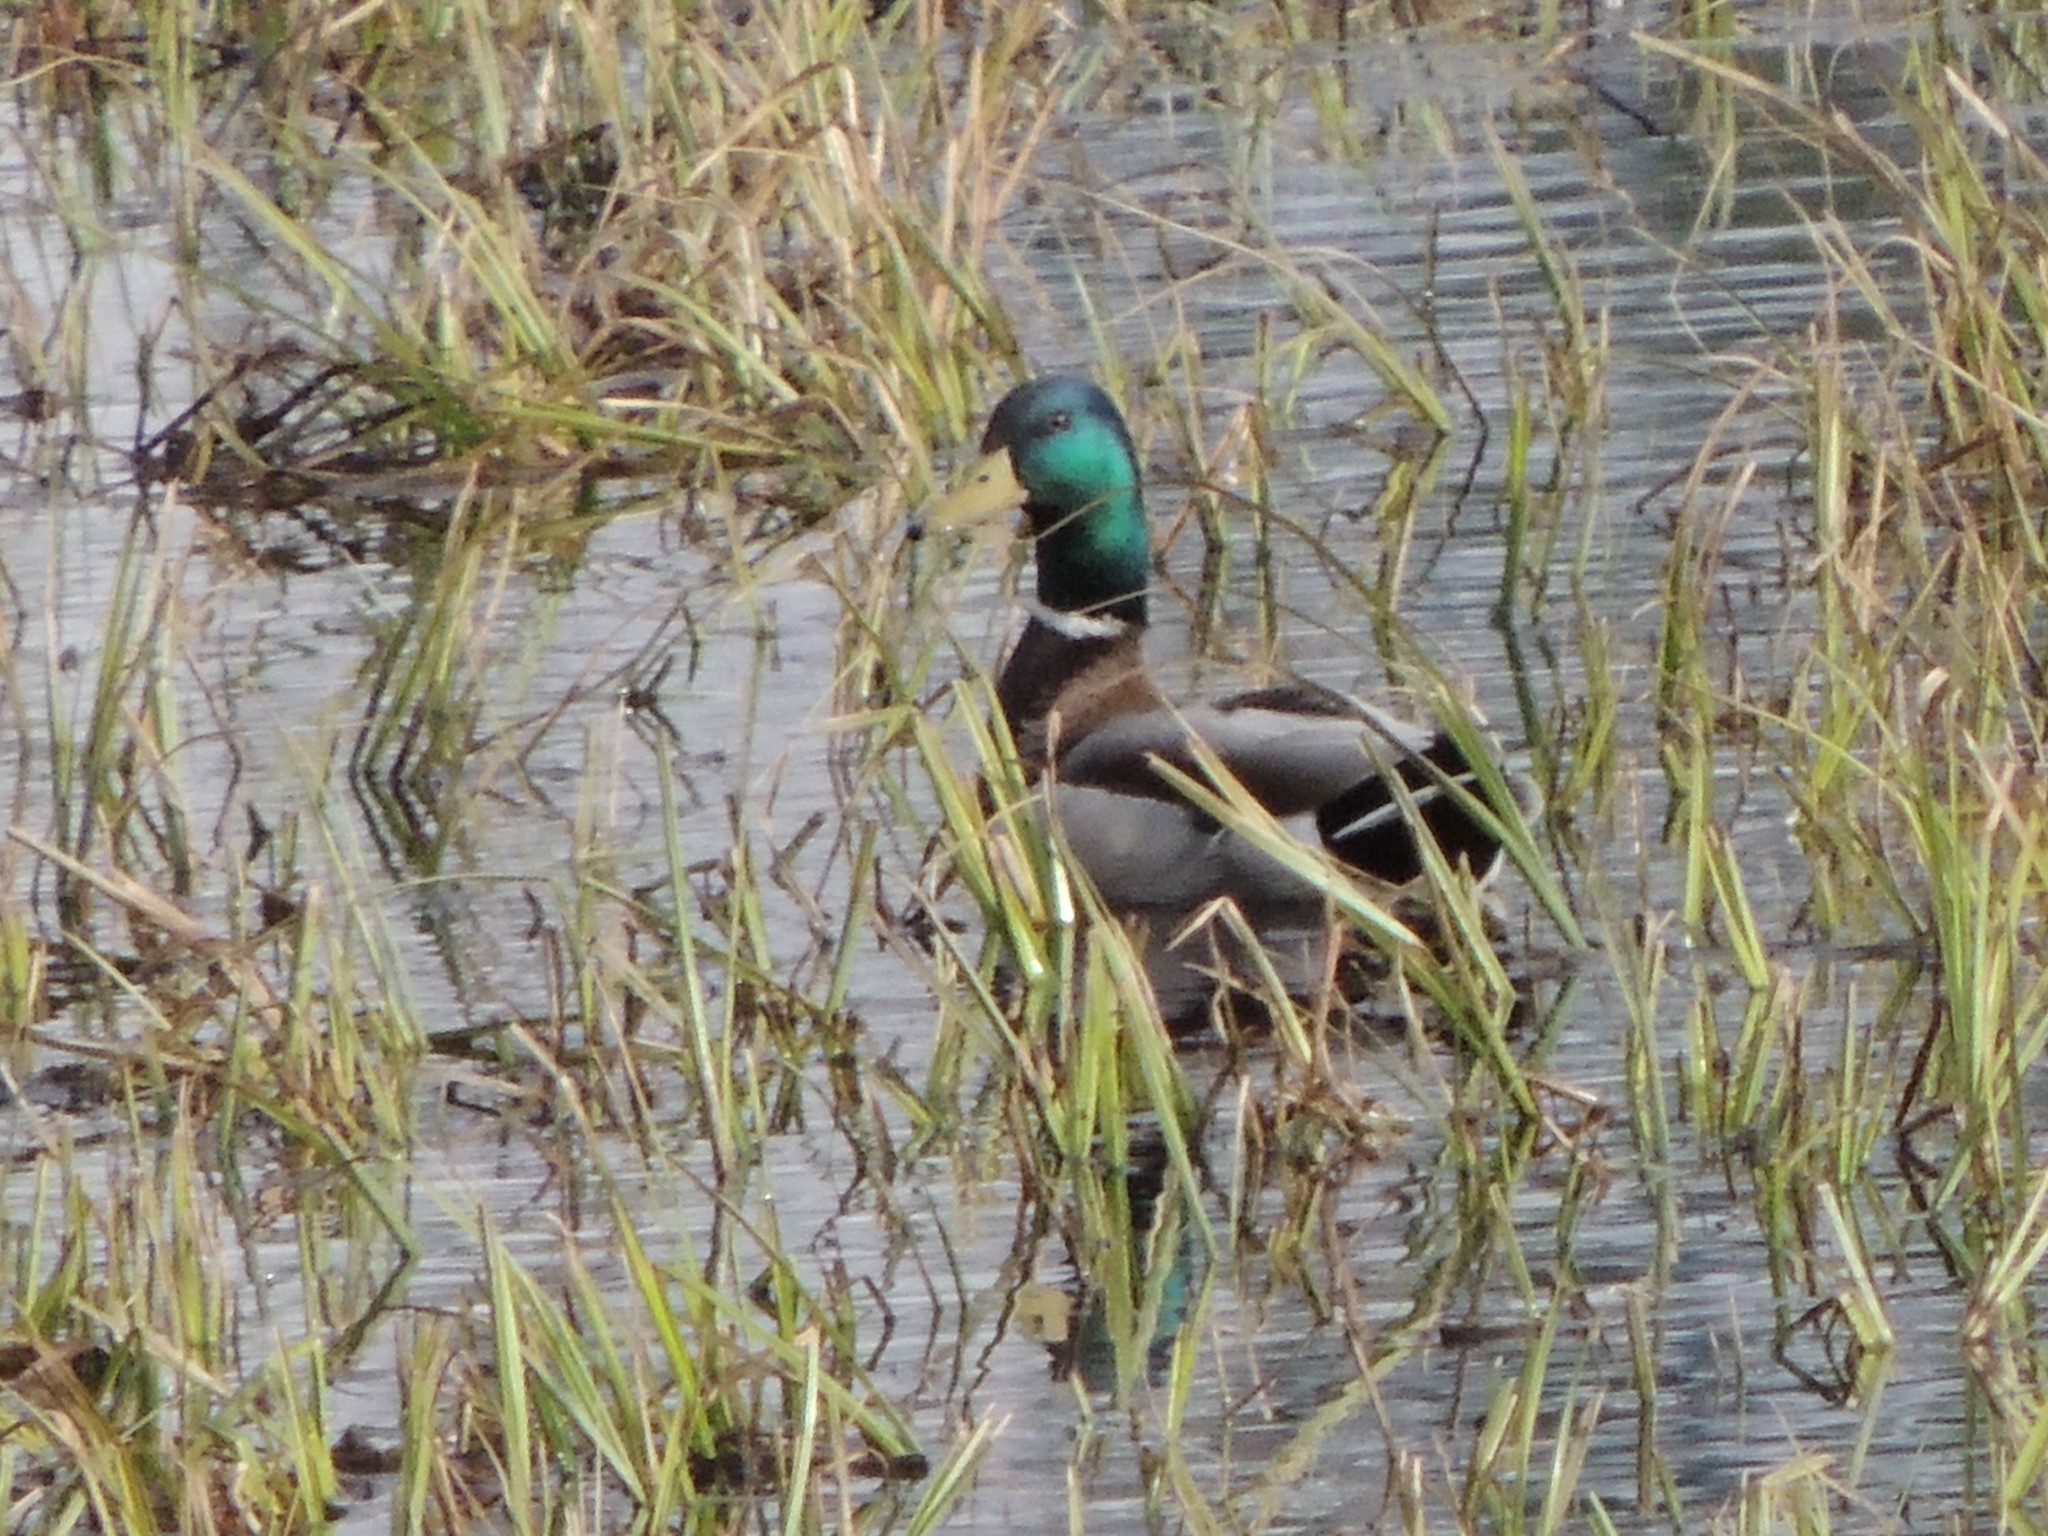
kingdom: Animalia
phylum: Chordata
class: Aves
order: Anseriformes
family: Anatidae
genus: Anas
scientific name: Anas platyrhynchos
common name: Mallard
